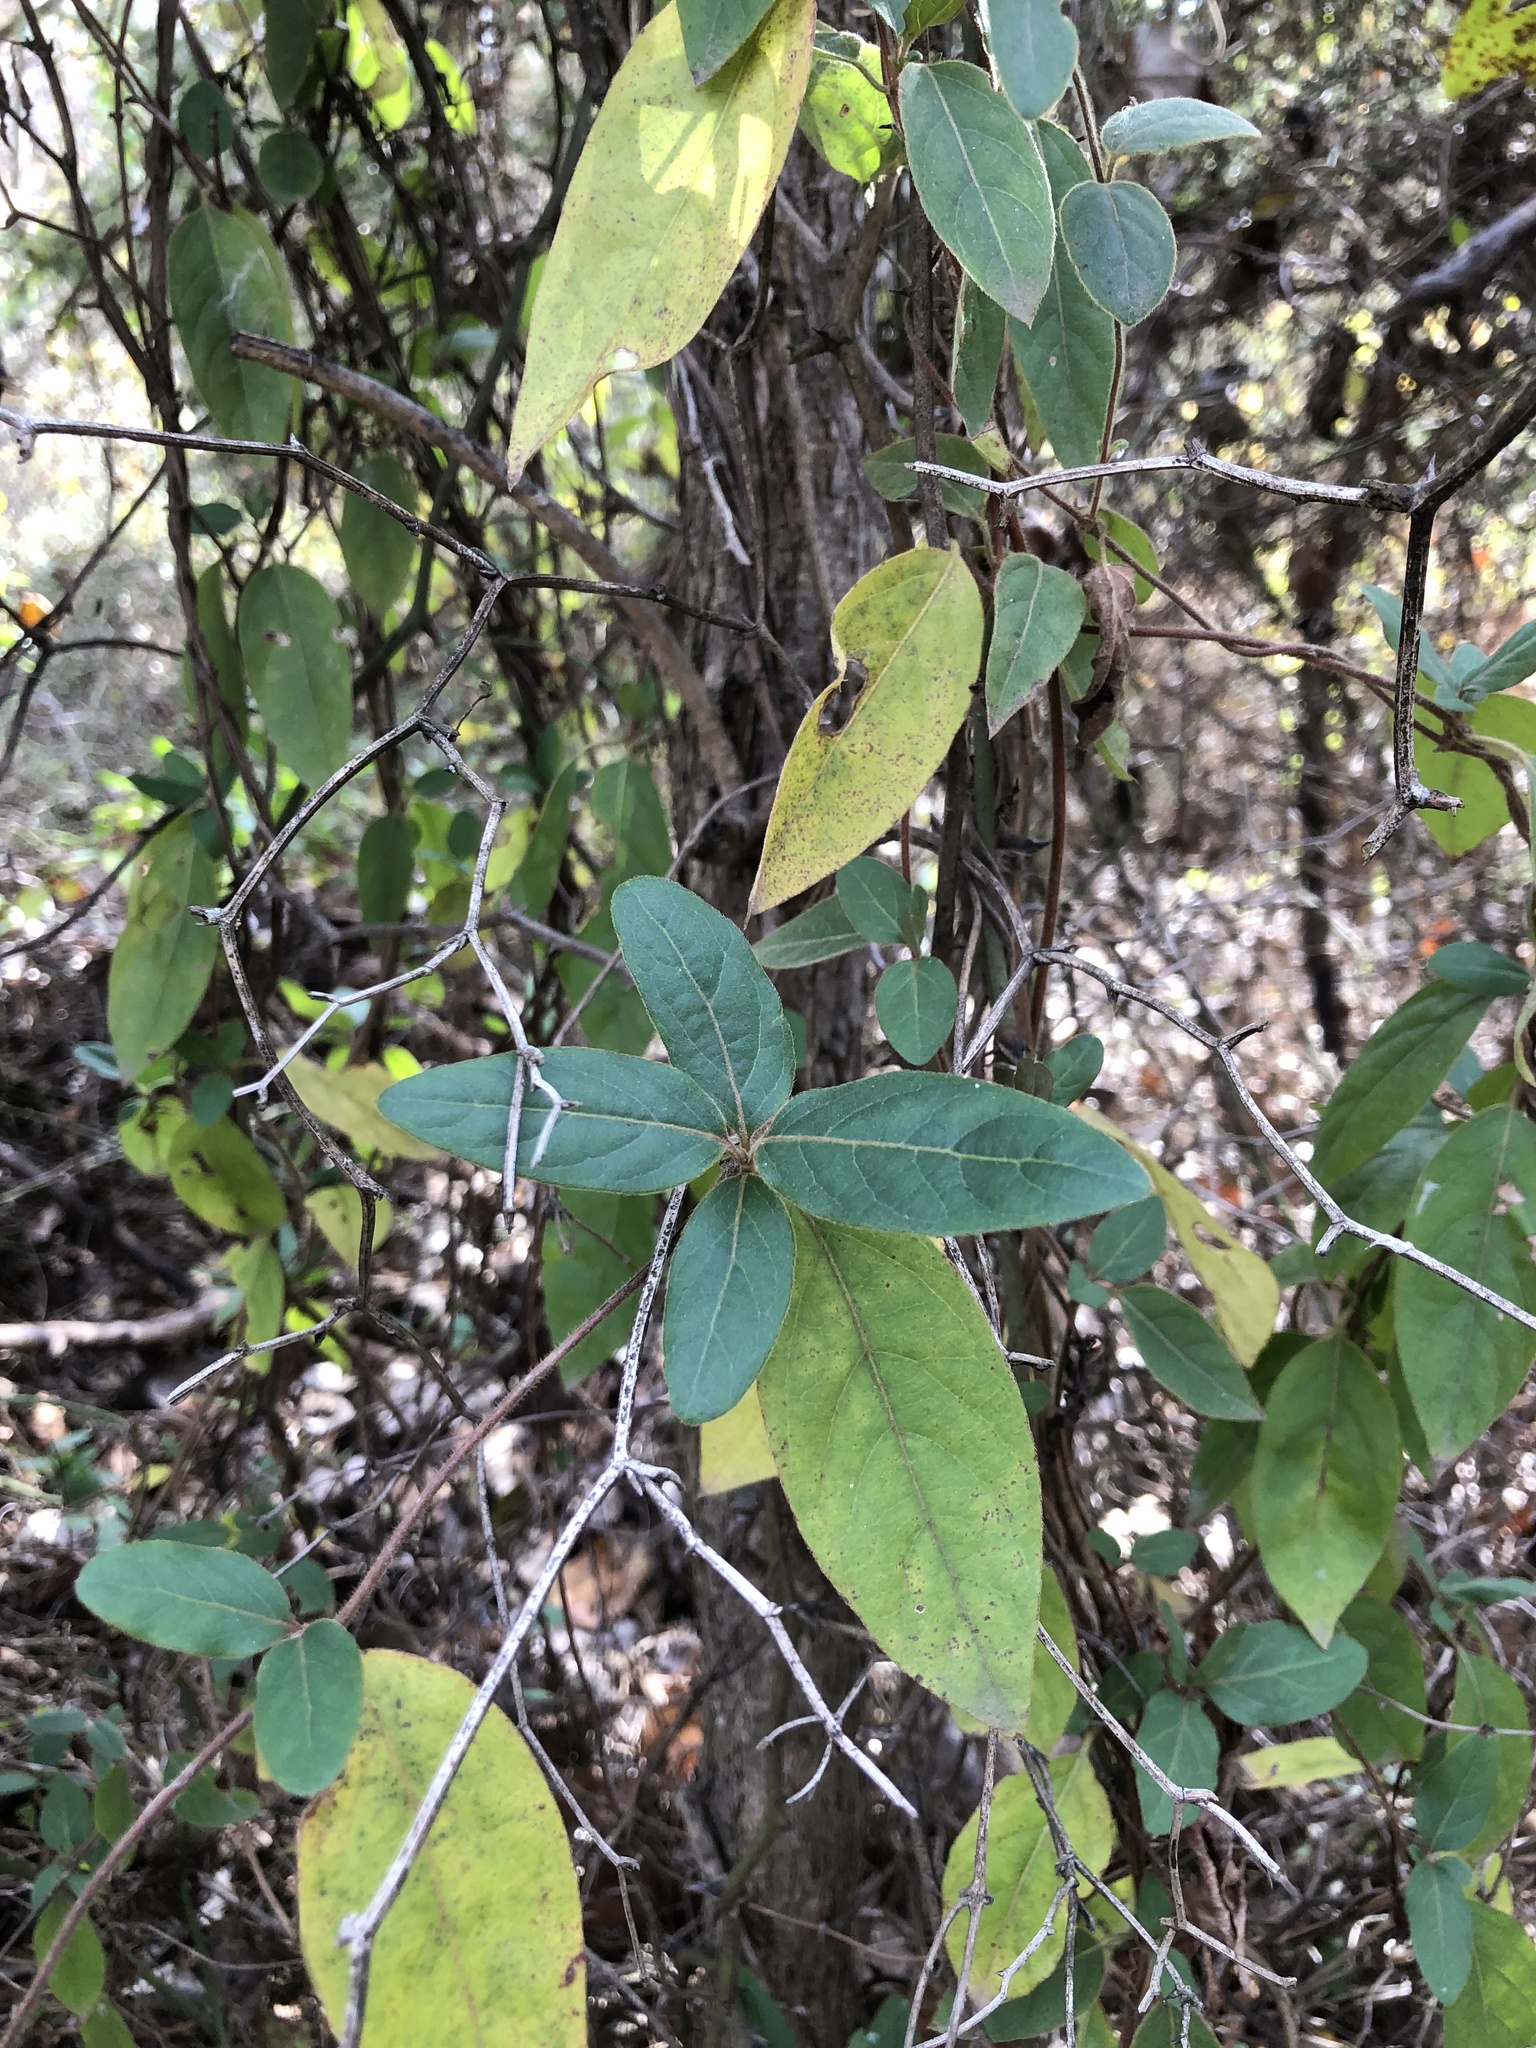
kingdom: Plantae
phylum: Tracheophyta
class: Magnoliopsida
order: Dipsacales
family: Caprifoliaceae
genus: Lonicera
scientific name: Lonicera japonica
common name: Japanese honeysuckle
